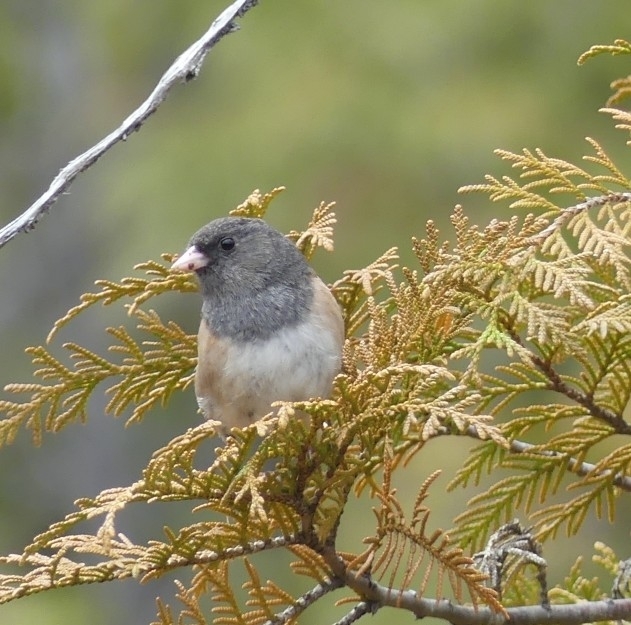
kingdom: Animalia
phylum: Chordata
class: Aves
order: Passeriformes
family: Passerellidae
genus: Junco
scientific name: Junco hyemalis
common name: Dark-eyed junco
